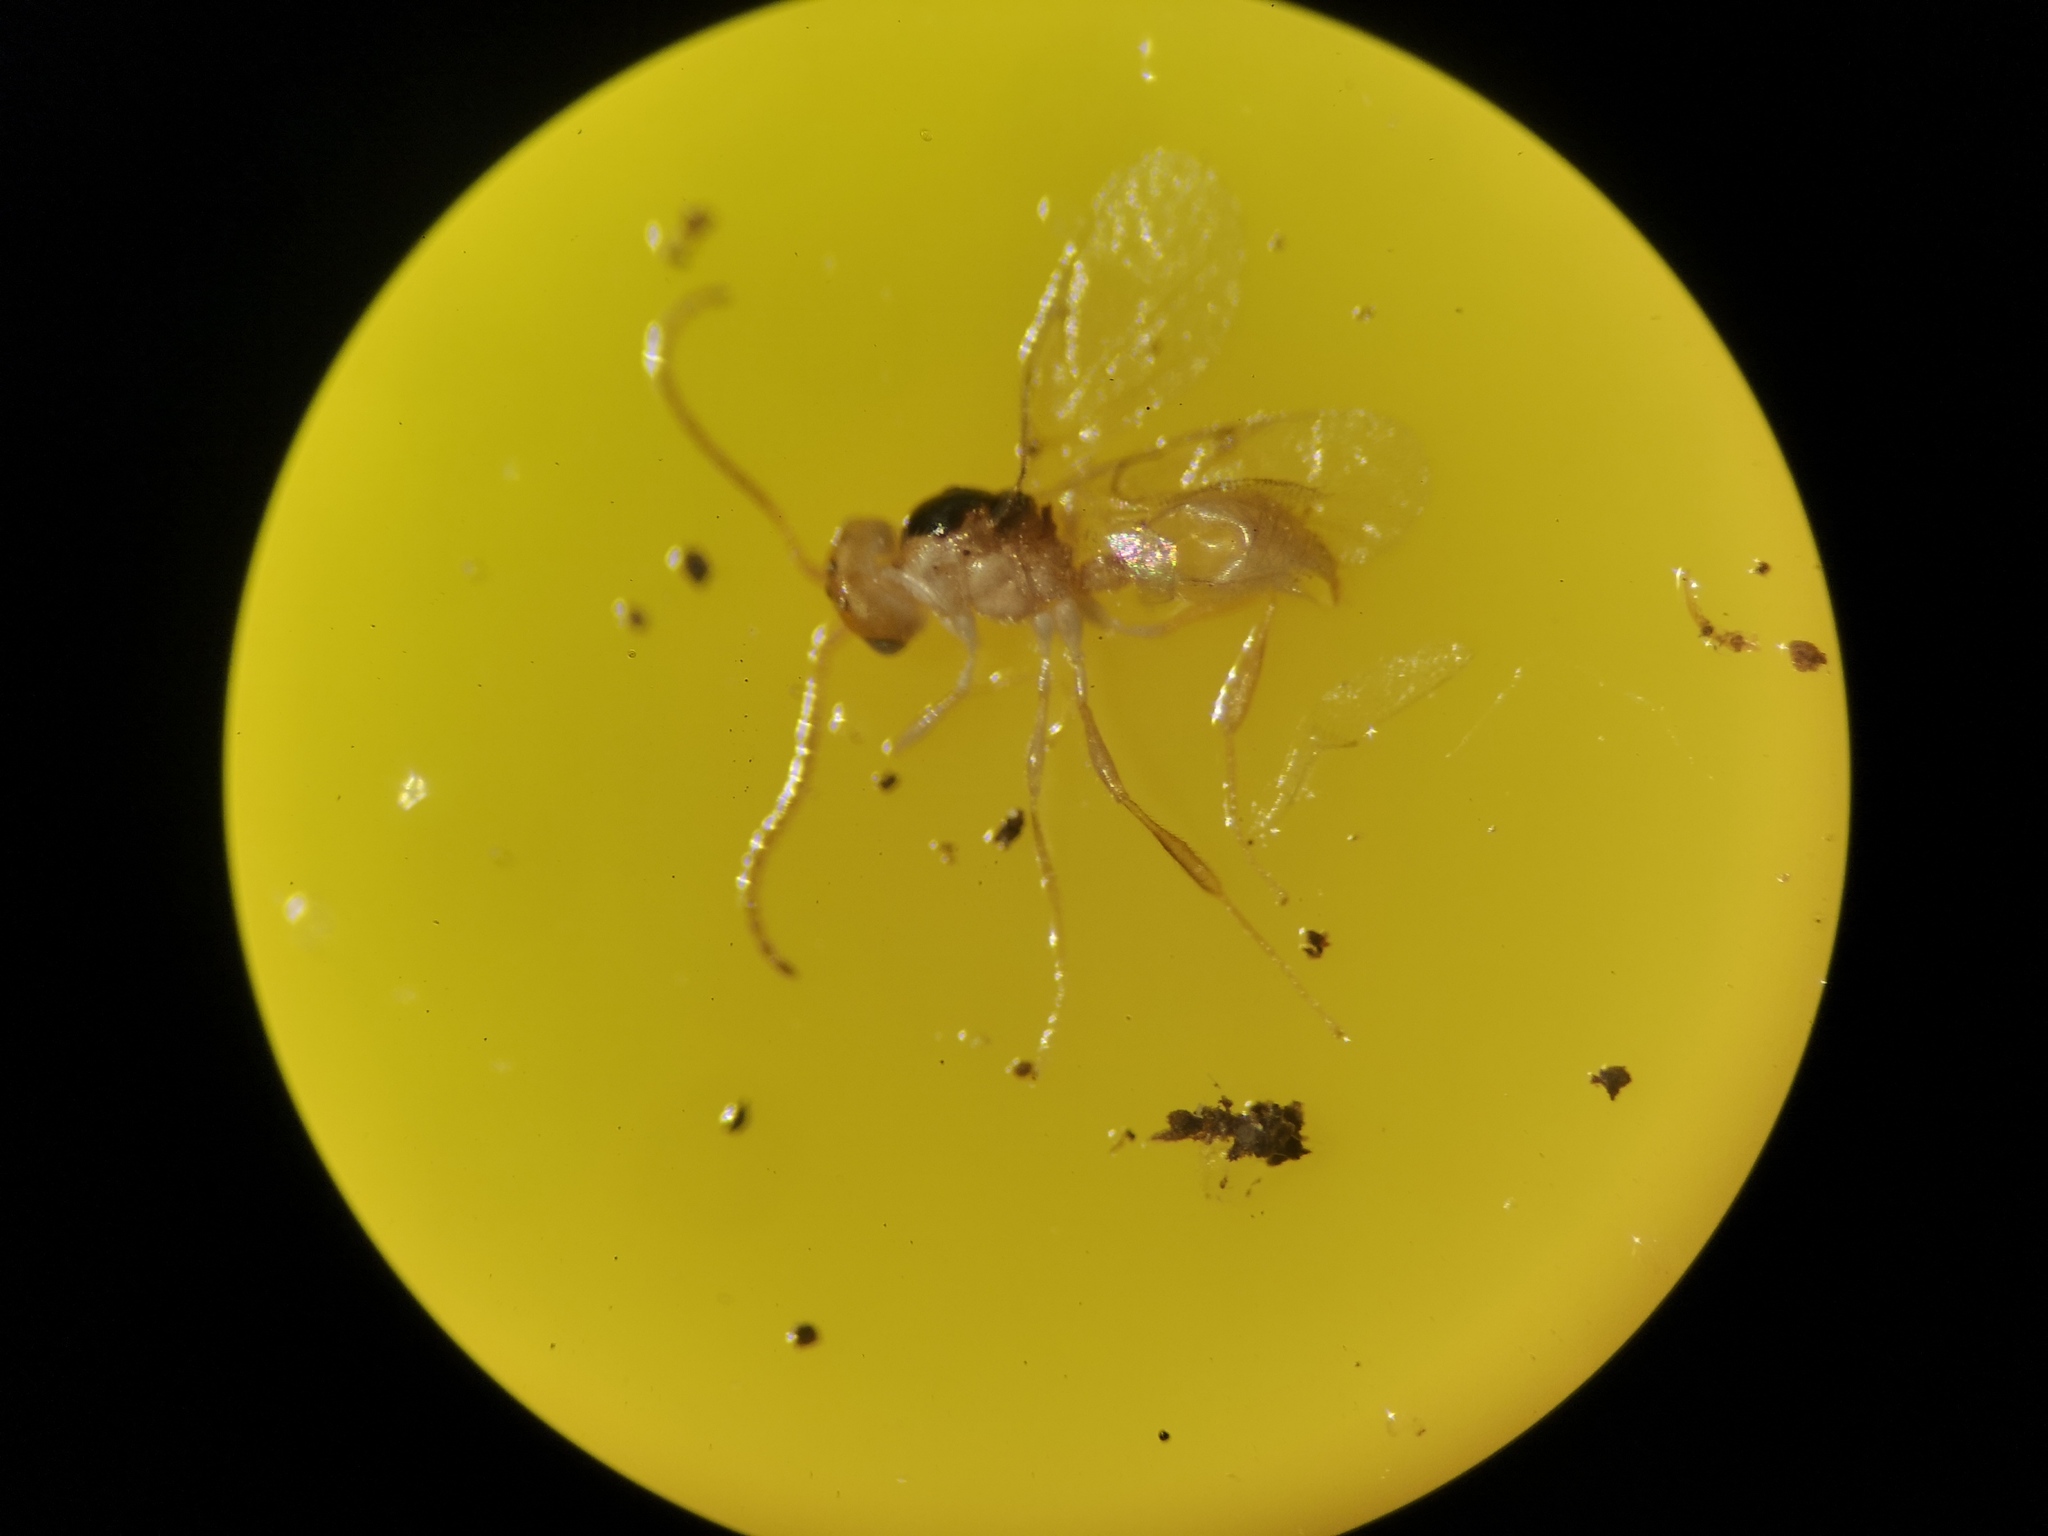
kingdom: Animalia
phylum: Arthropoda
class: Insecta
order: Hymenoptera
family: Diapriidae
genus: Ismarus
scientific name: Ismarus dorsiger
